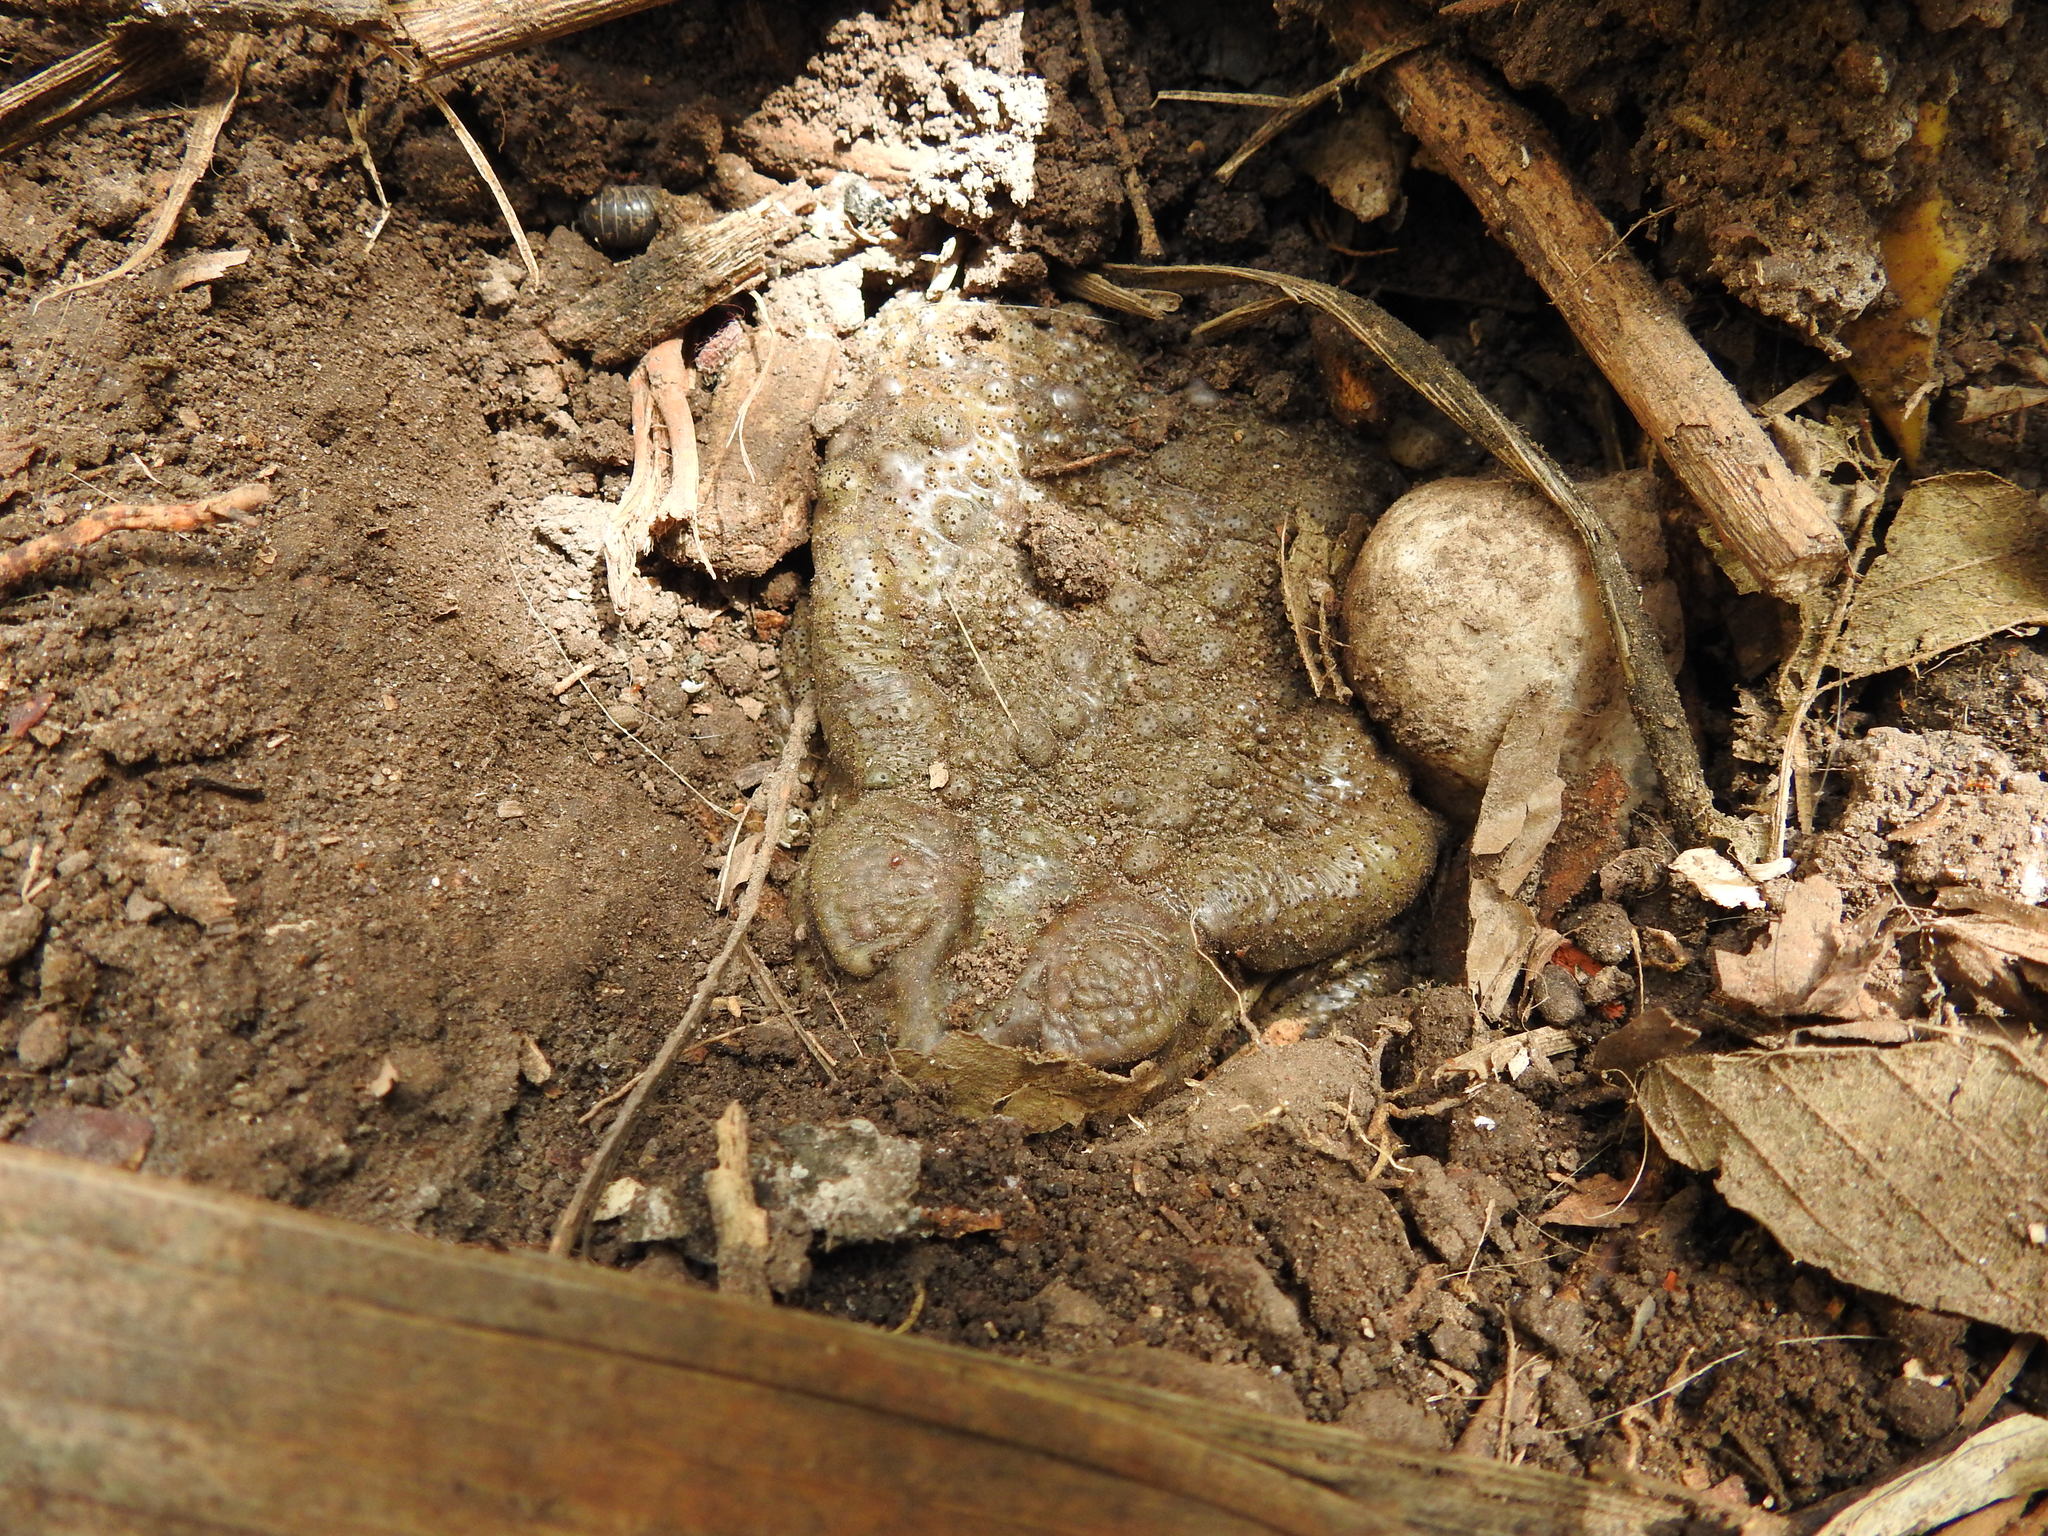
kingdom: Animalia
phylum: Chordata
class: Amphibia
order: Anura
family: Bufonidae
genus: Rhinella
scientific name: Rhinella arenarum
